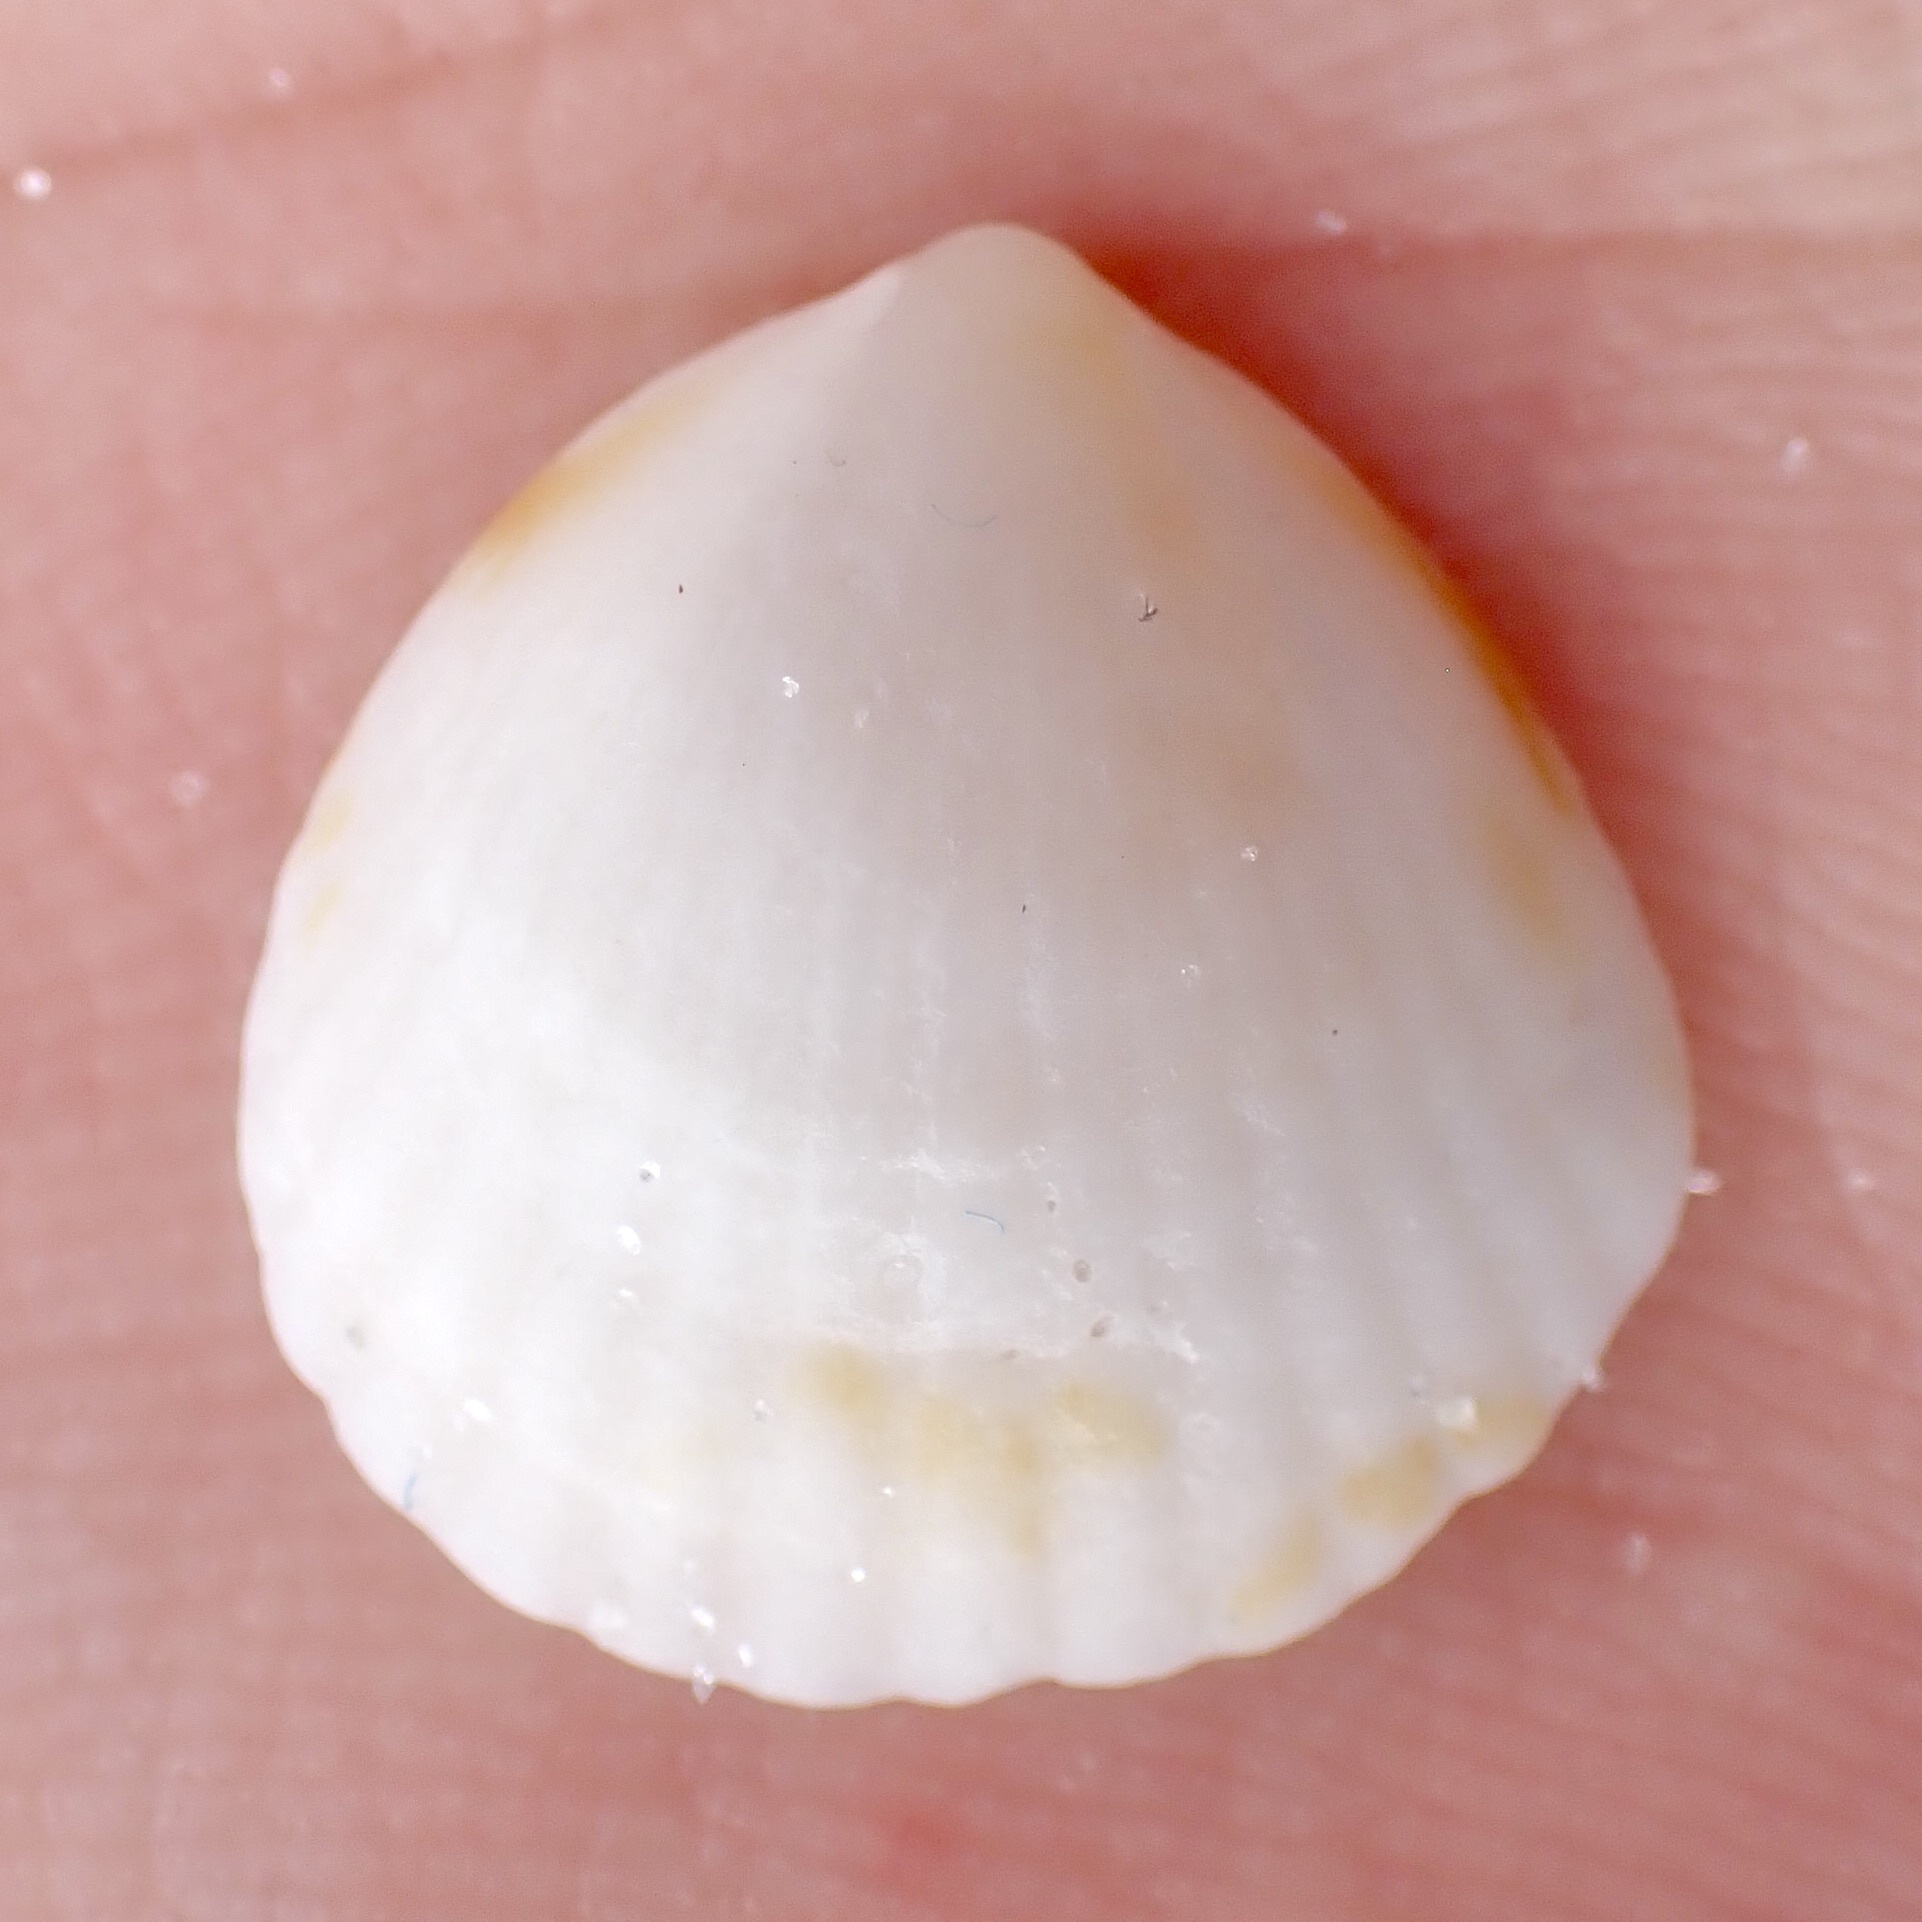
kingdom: Animalia
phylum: Mollusca
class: Bivalvia
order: Arcida
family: Glycymerididae
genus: Tucetona
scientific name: Tucetona pectinata
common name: Comb bittersweet
